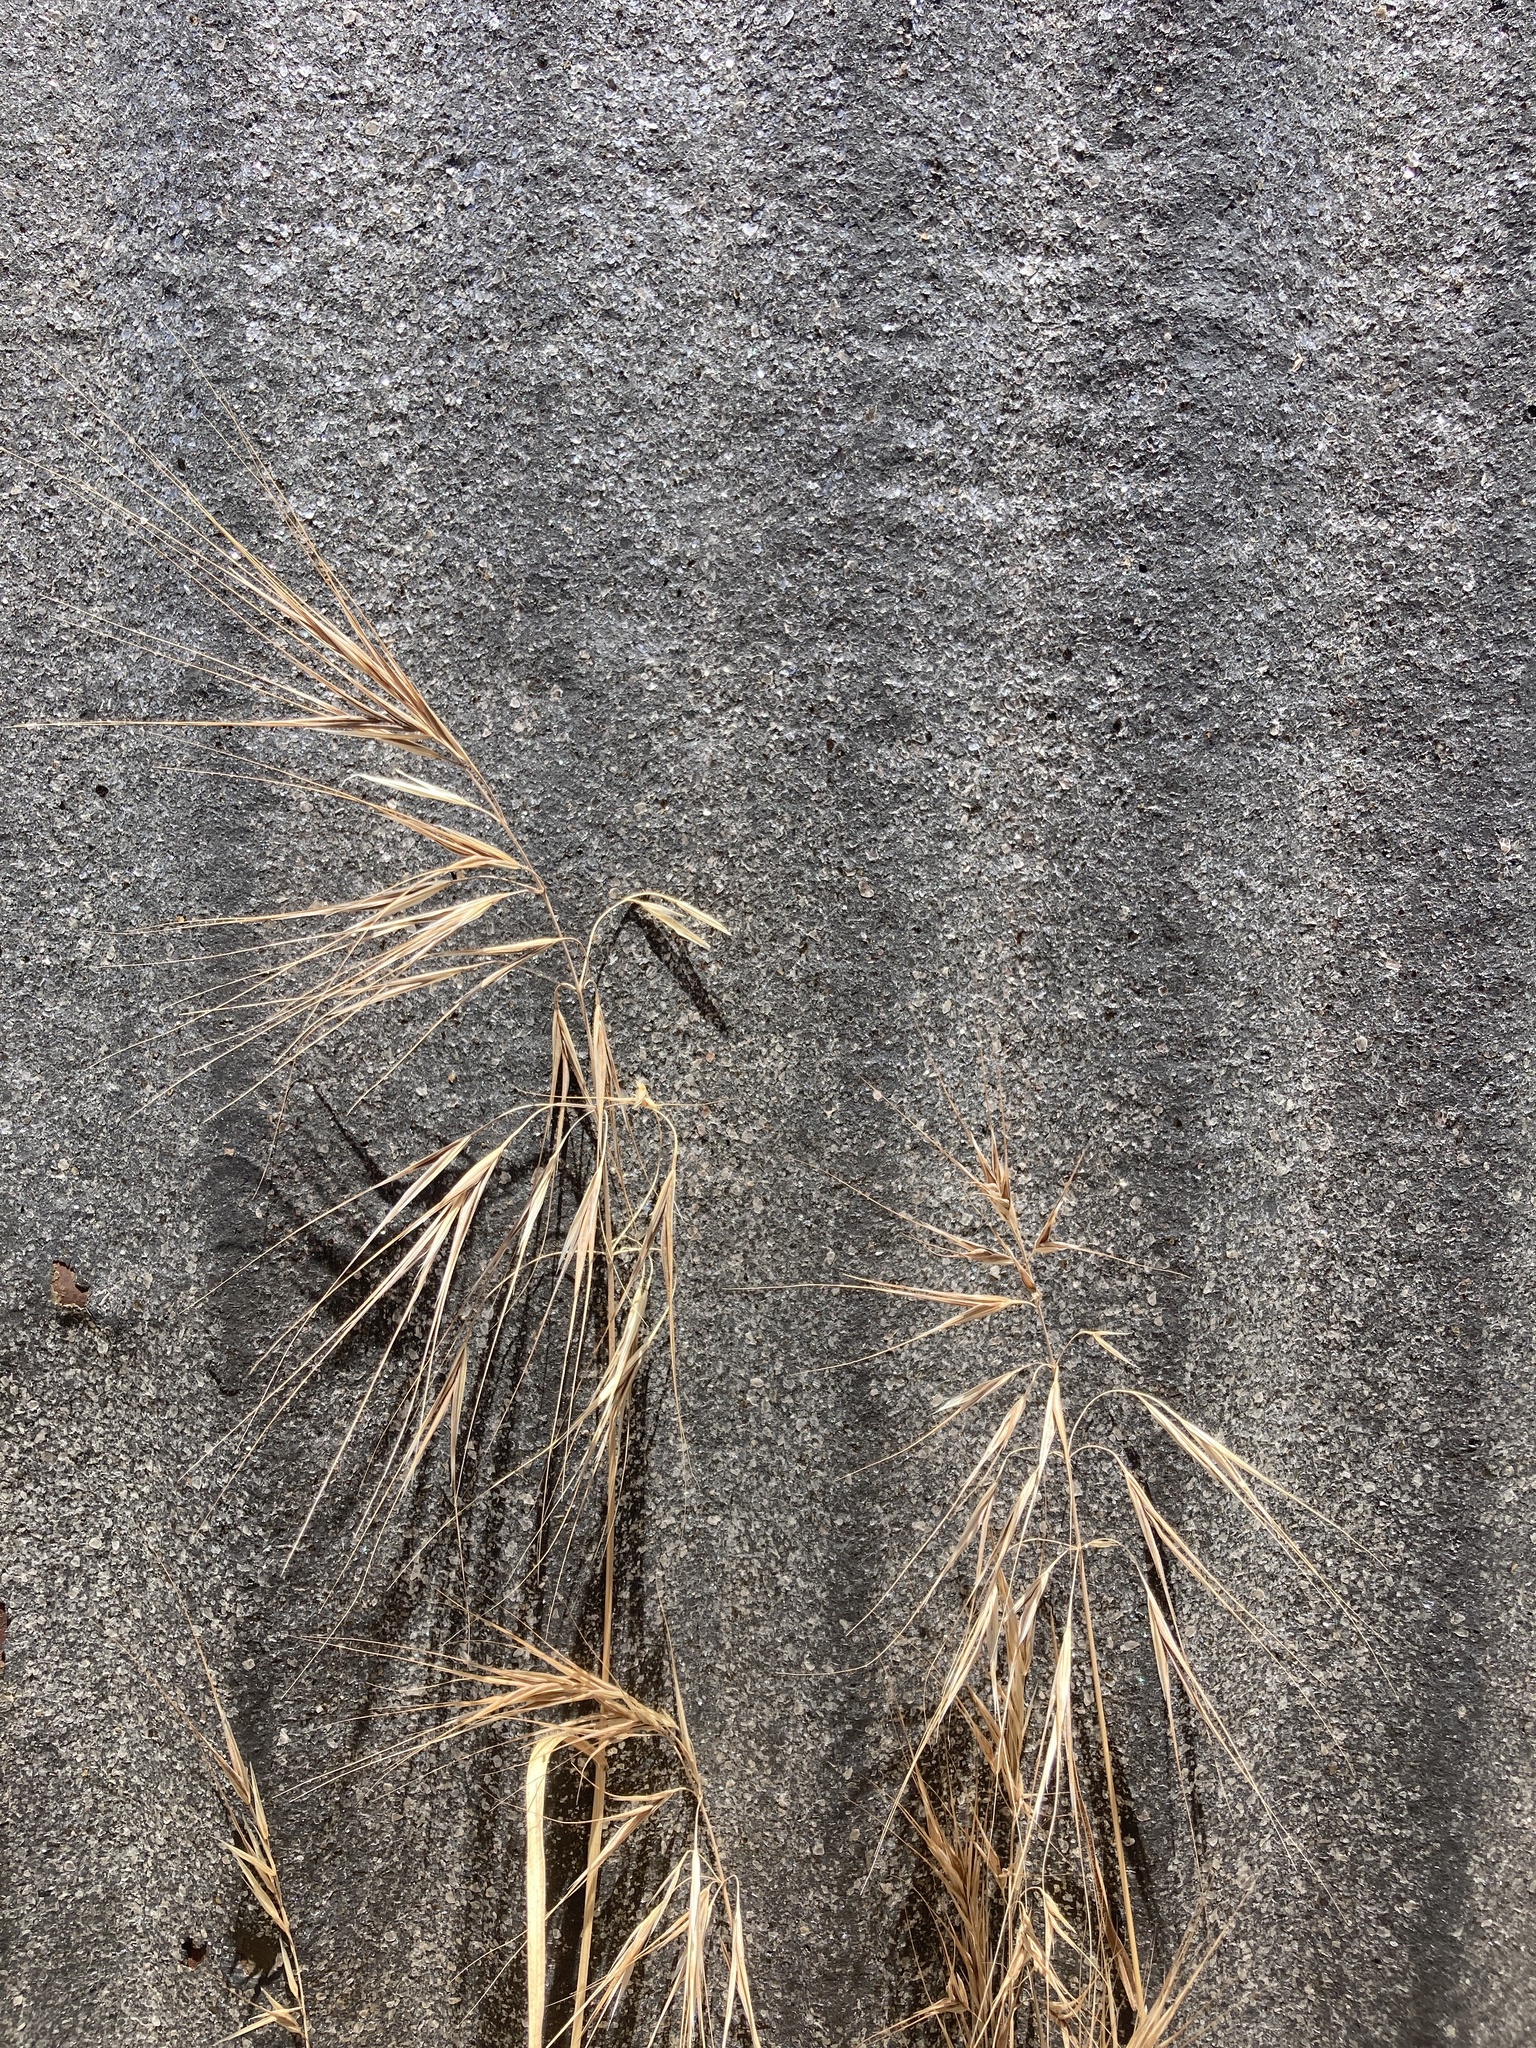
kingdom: Plantae
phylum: Tracheophyta
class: Liliopsida
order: Poales
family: Poaceae
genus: Bromus
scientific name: Bromus diandrus
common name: Ripgut brome
